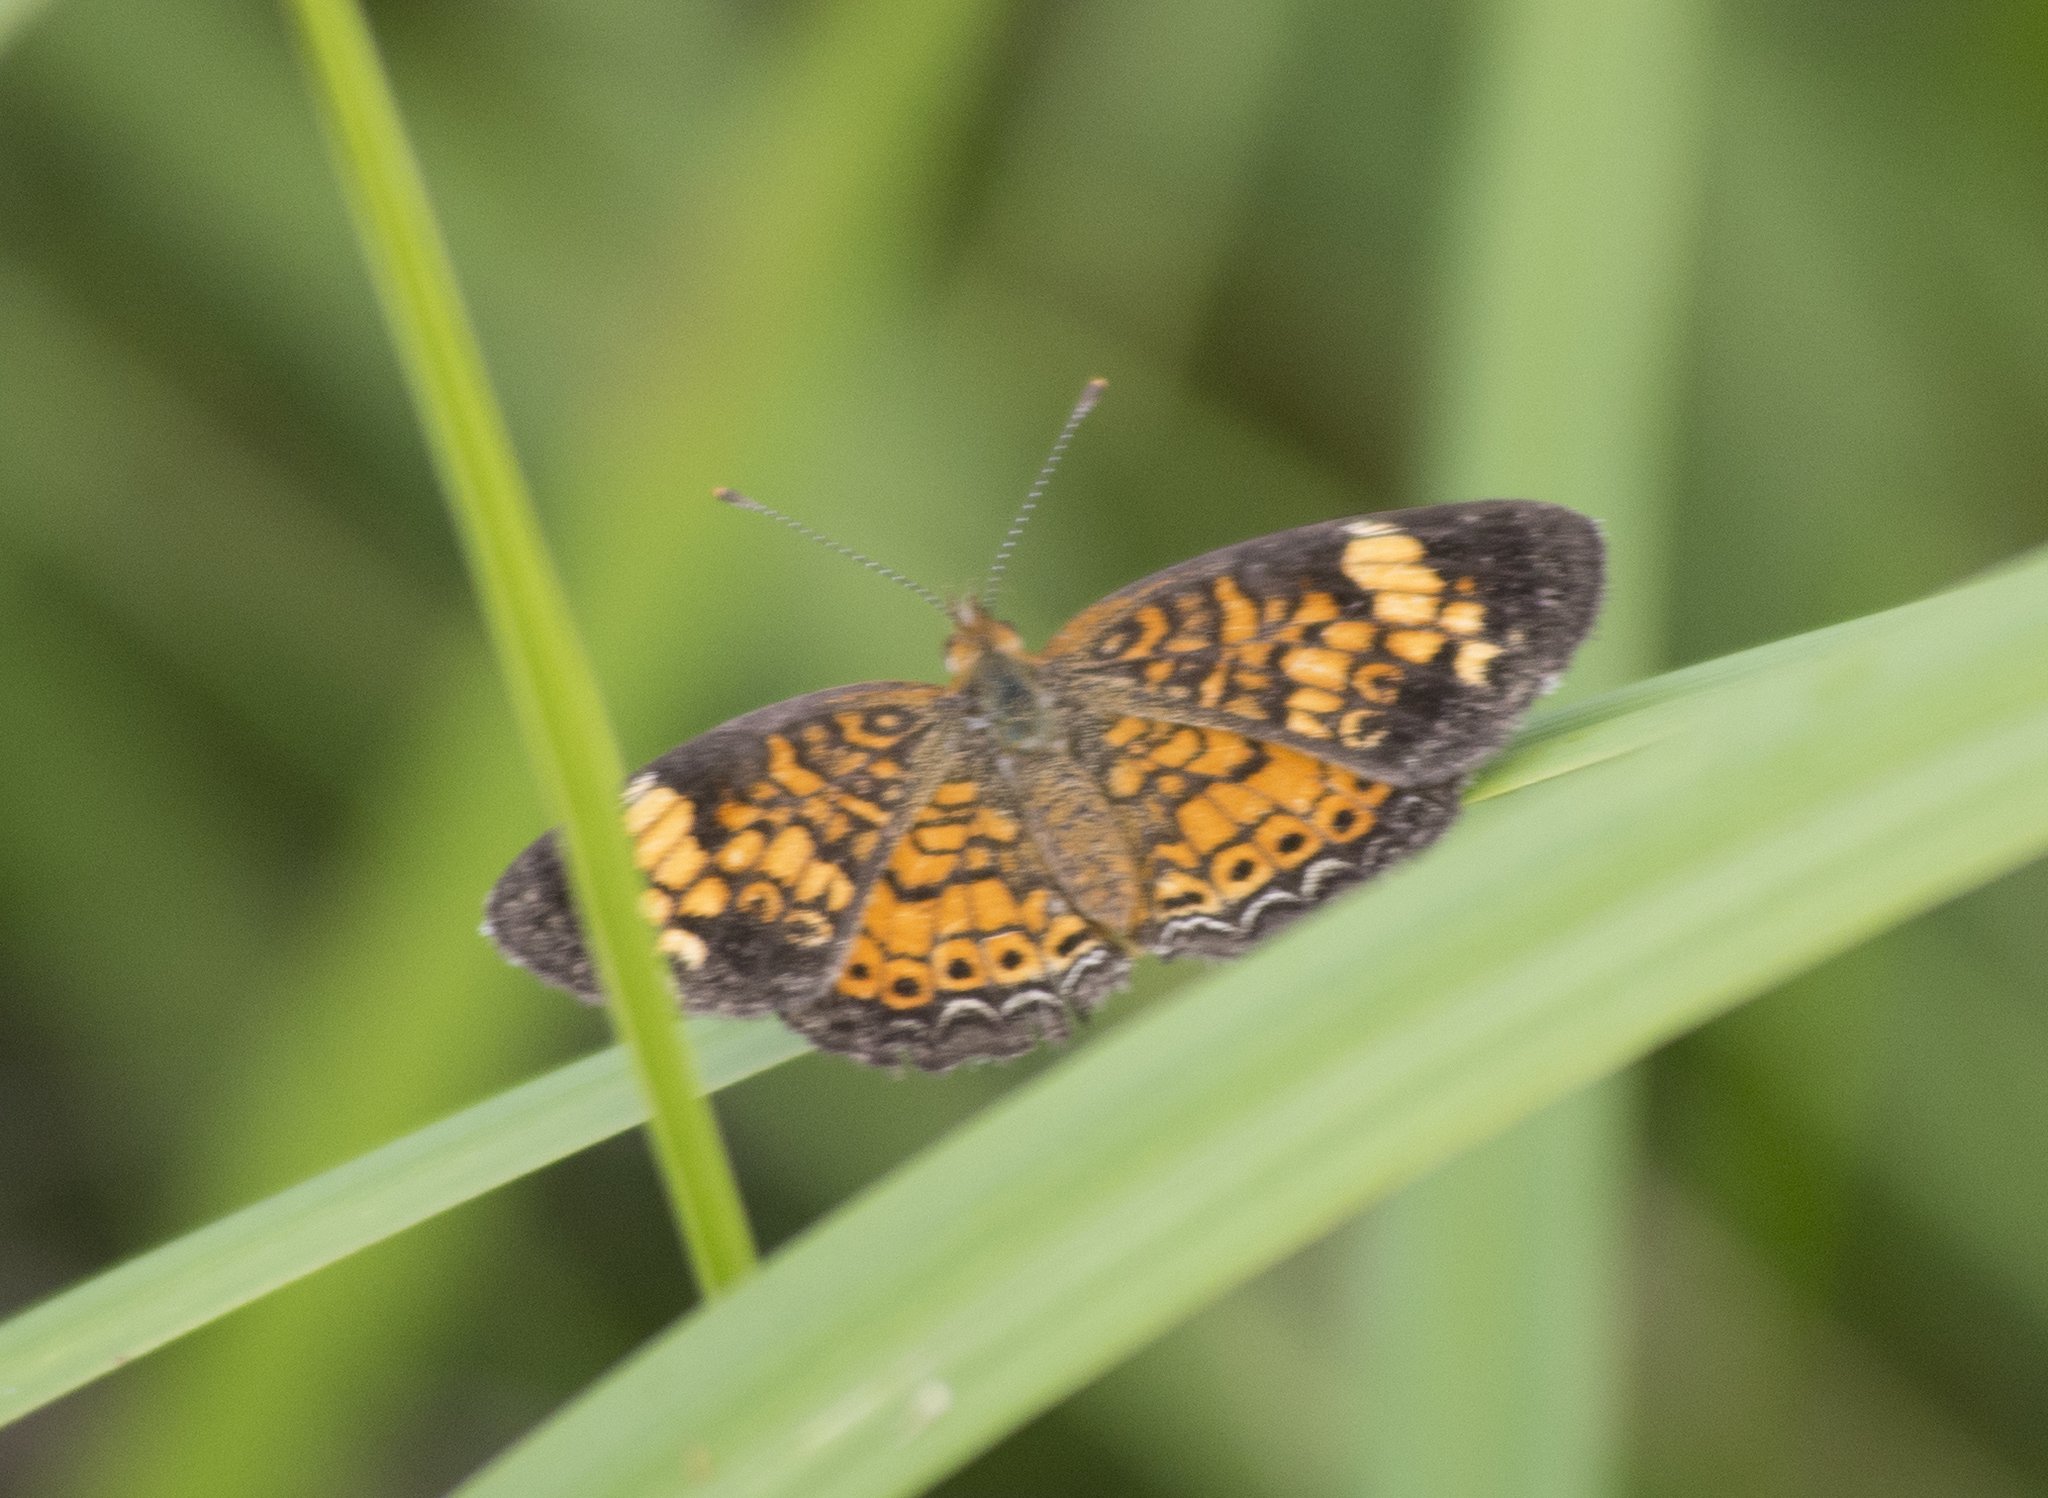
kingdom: Animalia
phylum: Arthropoda
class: Insecta
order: Lepidoptera
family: Nymphalidae
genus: Phyciodes
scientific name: Phyciodes tharos
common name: Pearl crescent
